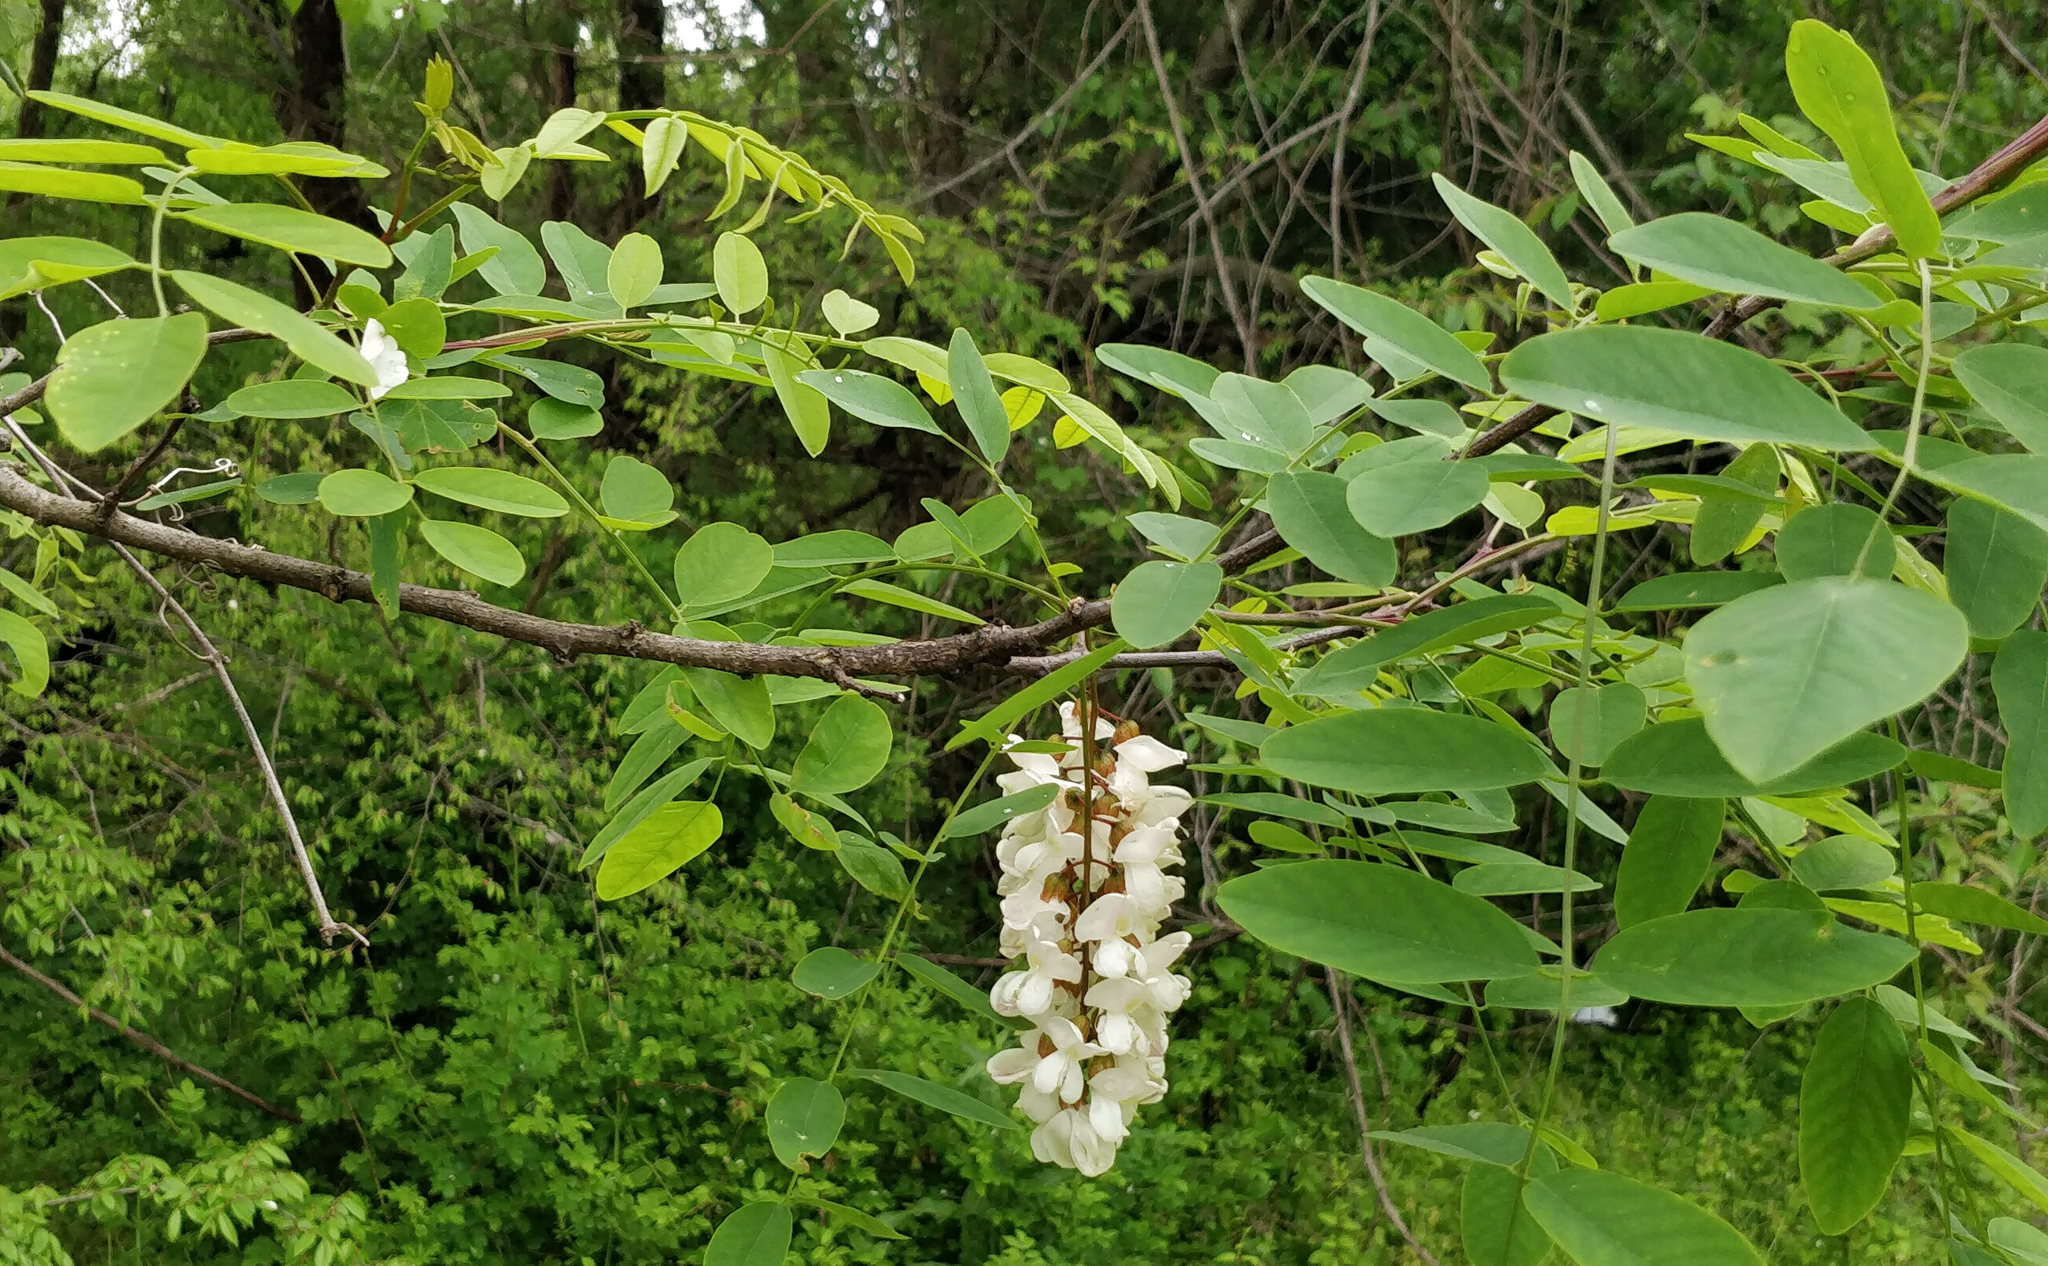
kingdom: Plantae
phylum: Tracheophyta
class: Magnoliopsida
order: Fabales
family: Fabaceae
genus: Robinia
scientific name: Robinia pseudoacacia
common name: Black locust
